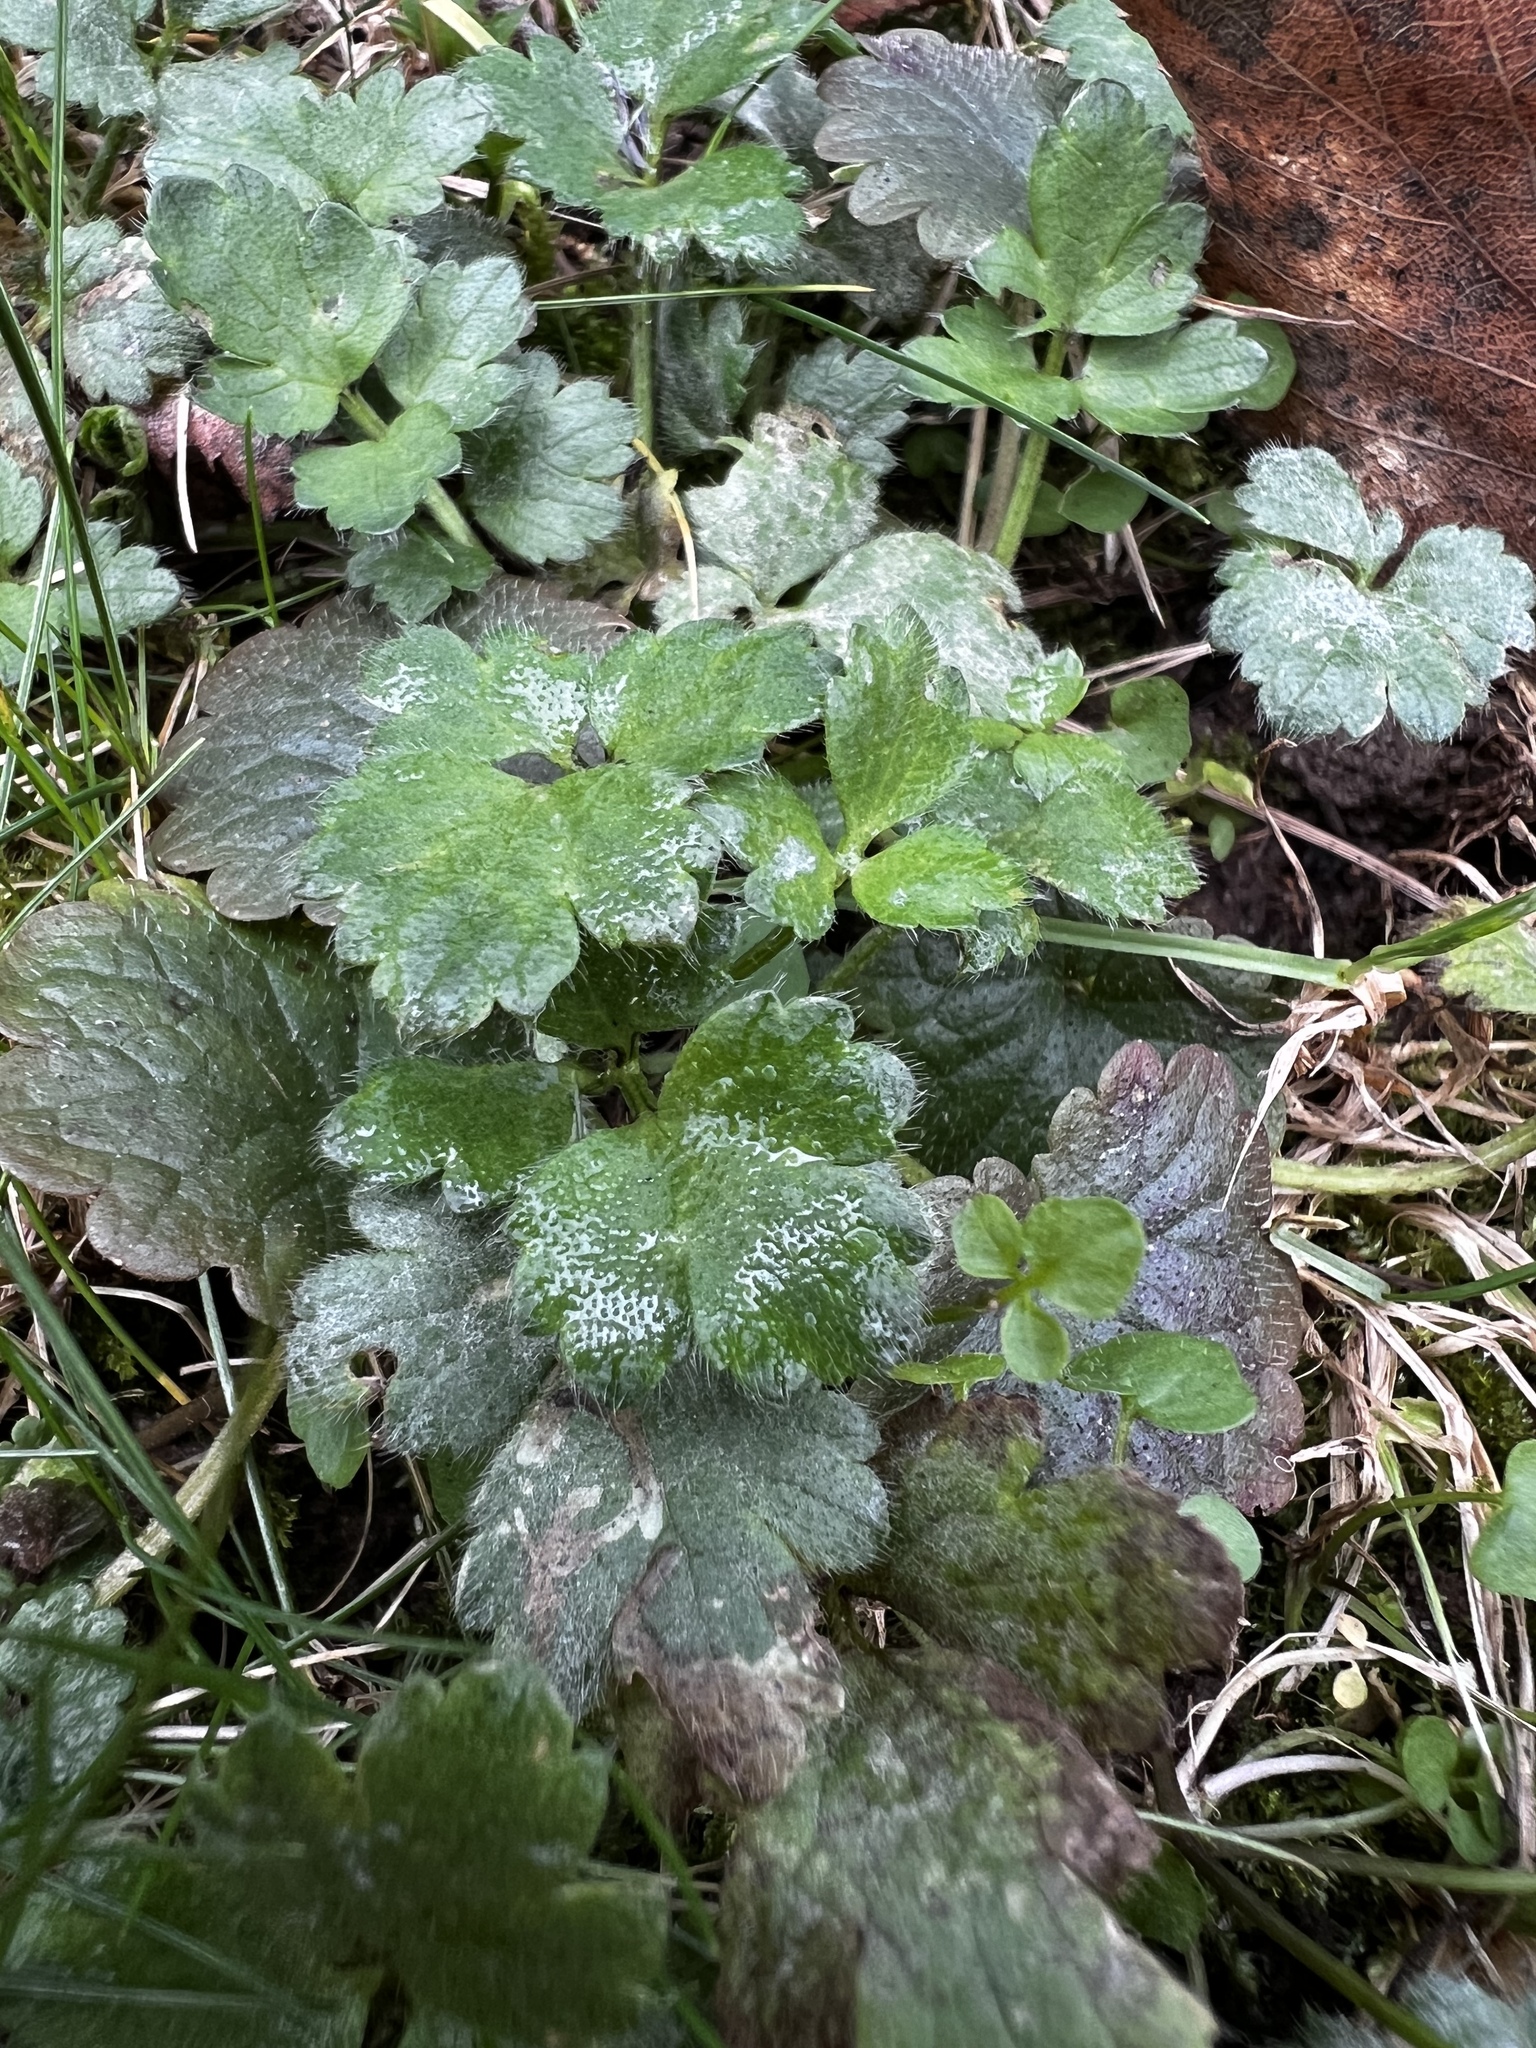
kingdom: Plantae
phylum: Tracheophyta
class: Magnoliopsida
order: Ranunculales
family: Ranunculaceae
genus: Ranunculus
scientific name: Ranunculus repens
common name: Creeping buttercup
